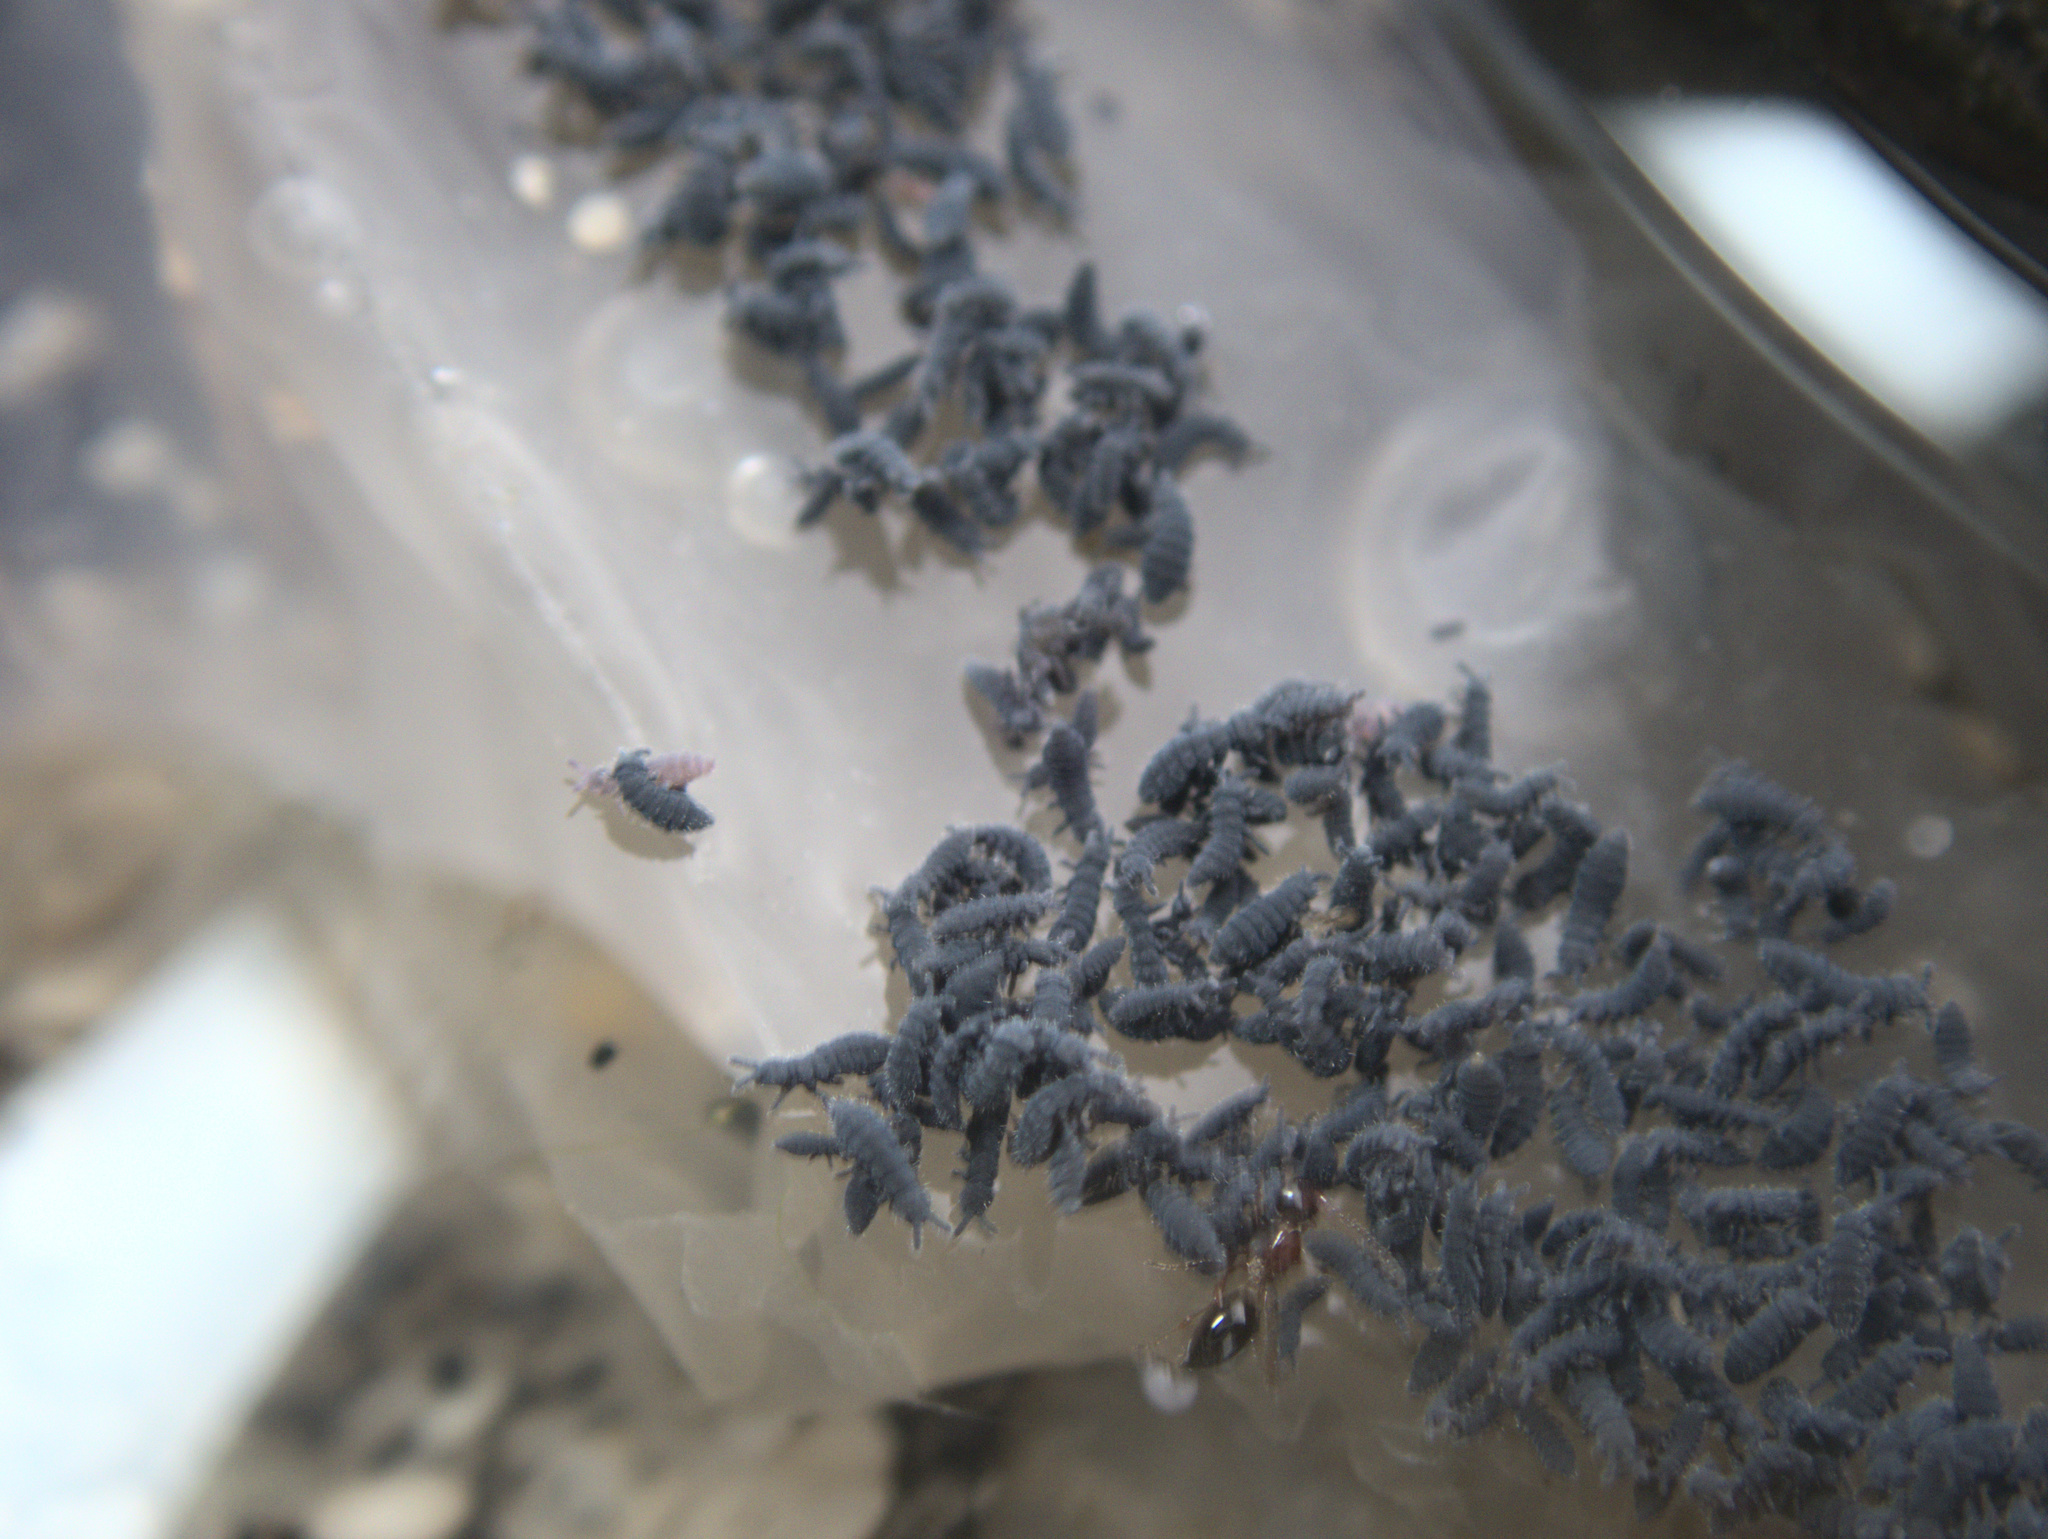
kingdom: Animalia
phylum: Arthropoda
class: Collembola
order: Poduromorpha
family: Neanuridae
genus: Anurida
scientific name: Anurida maritima
